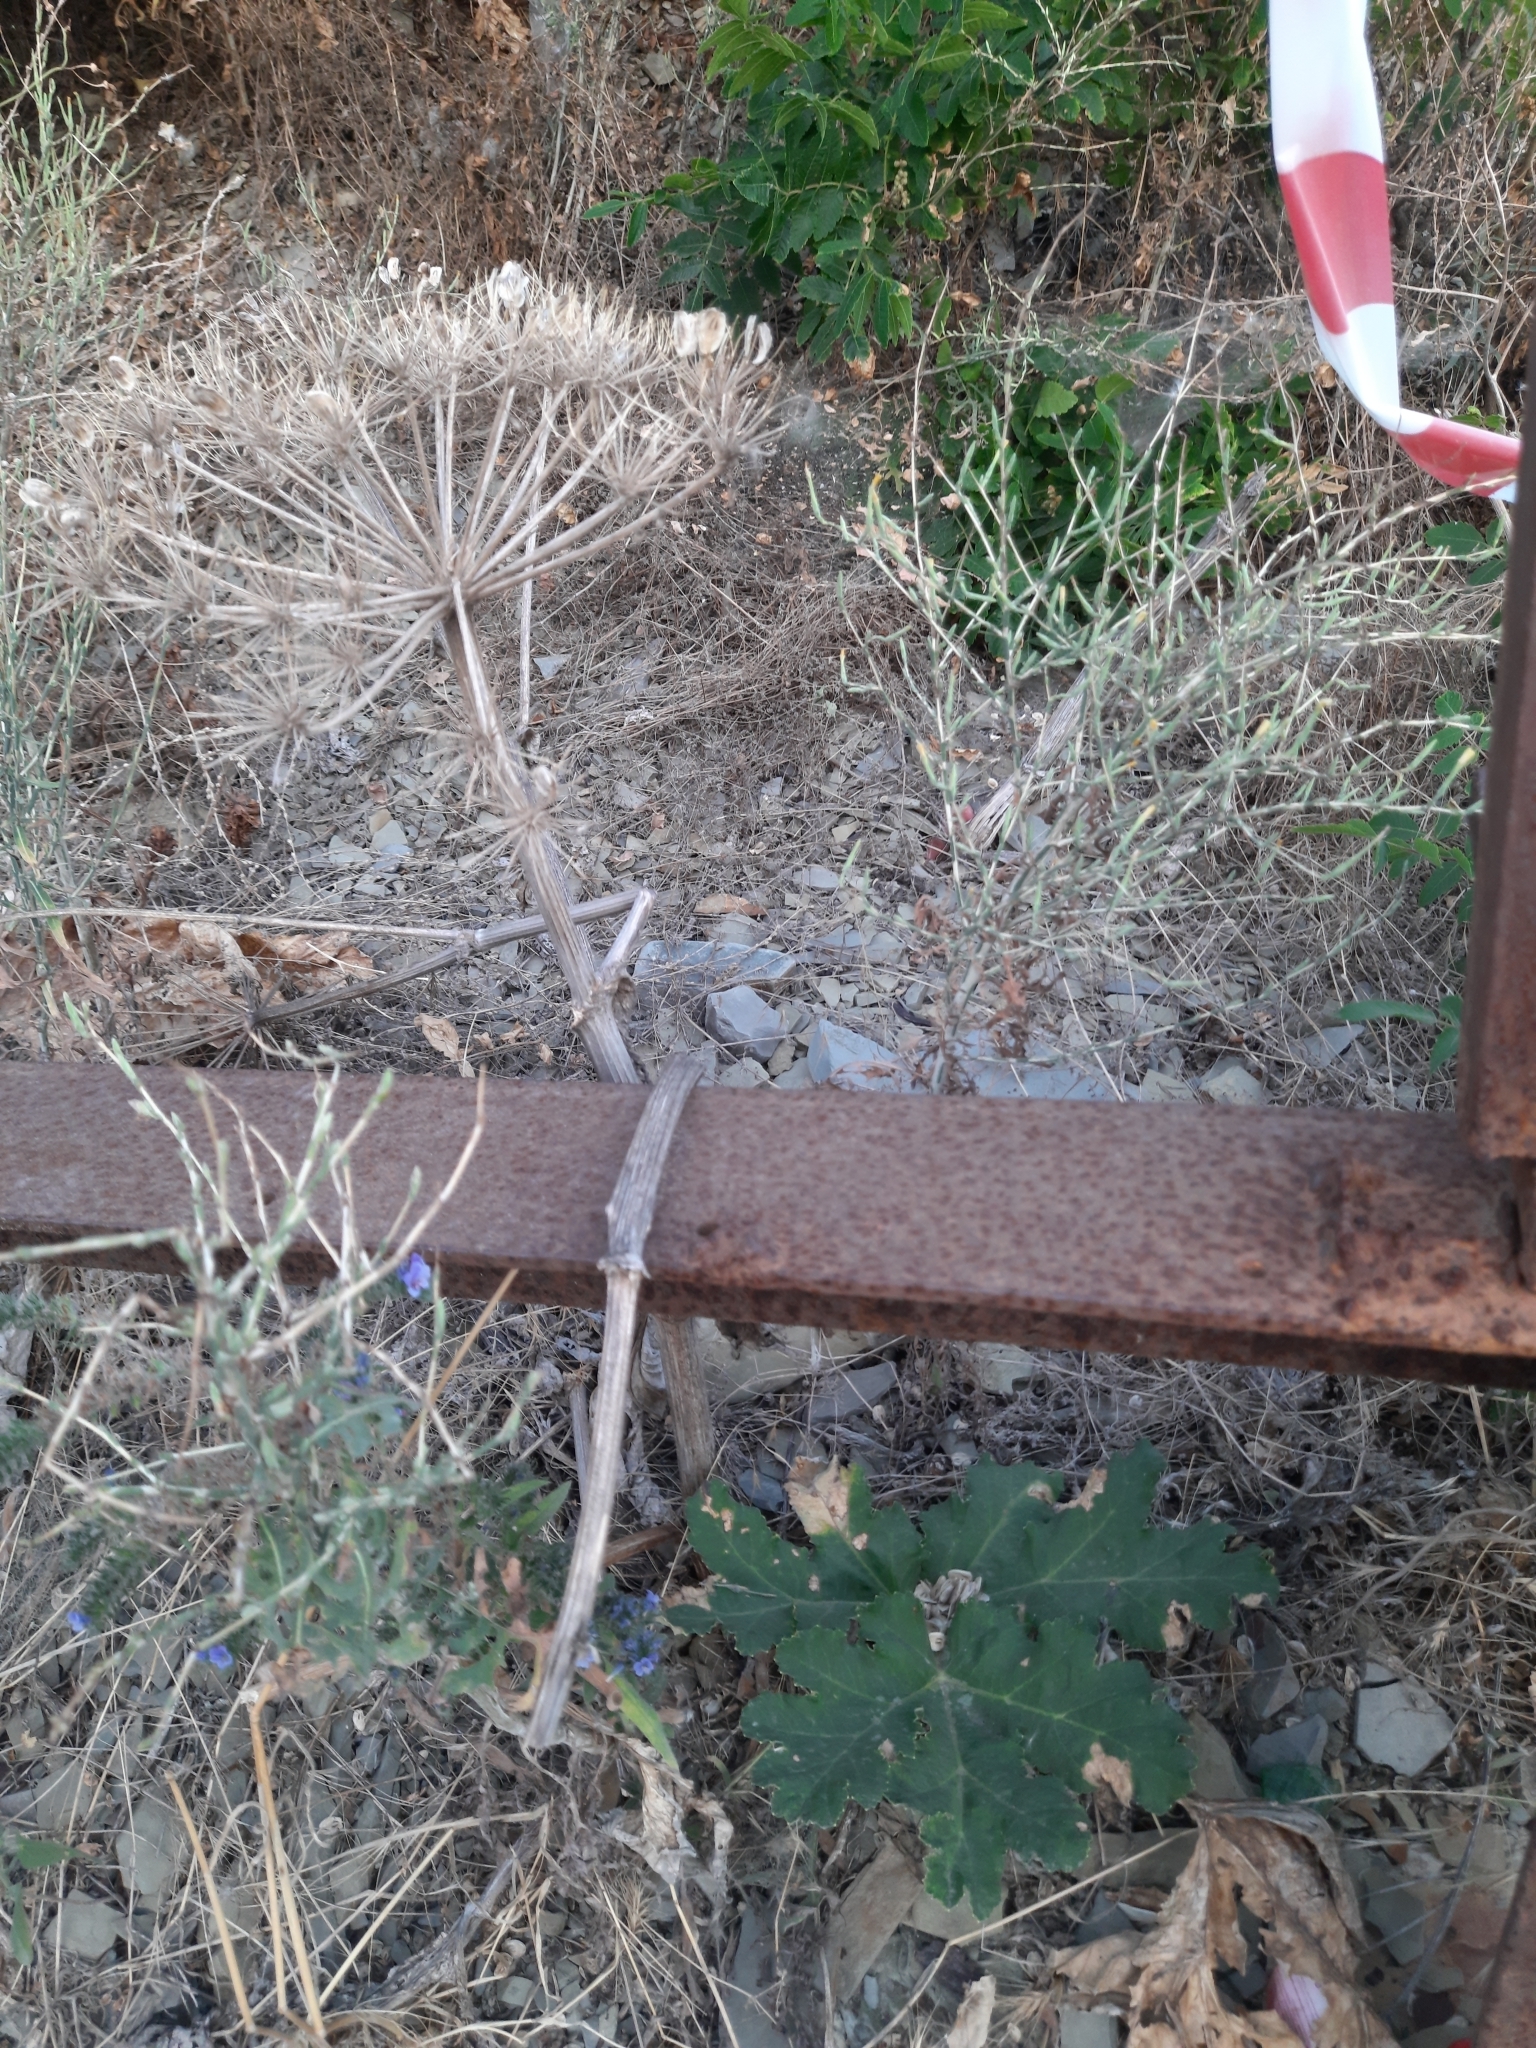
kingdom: Plantae
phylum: Tracheophyta
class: Magnoliopsida
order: Apiales
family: Apiaceae
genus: Heracleum
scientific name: Heracleum stevenii
